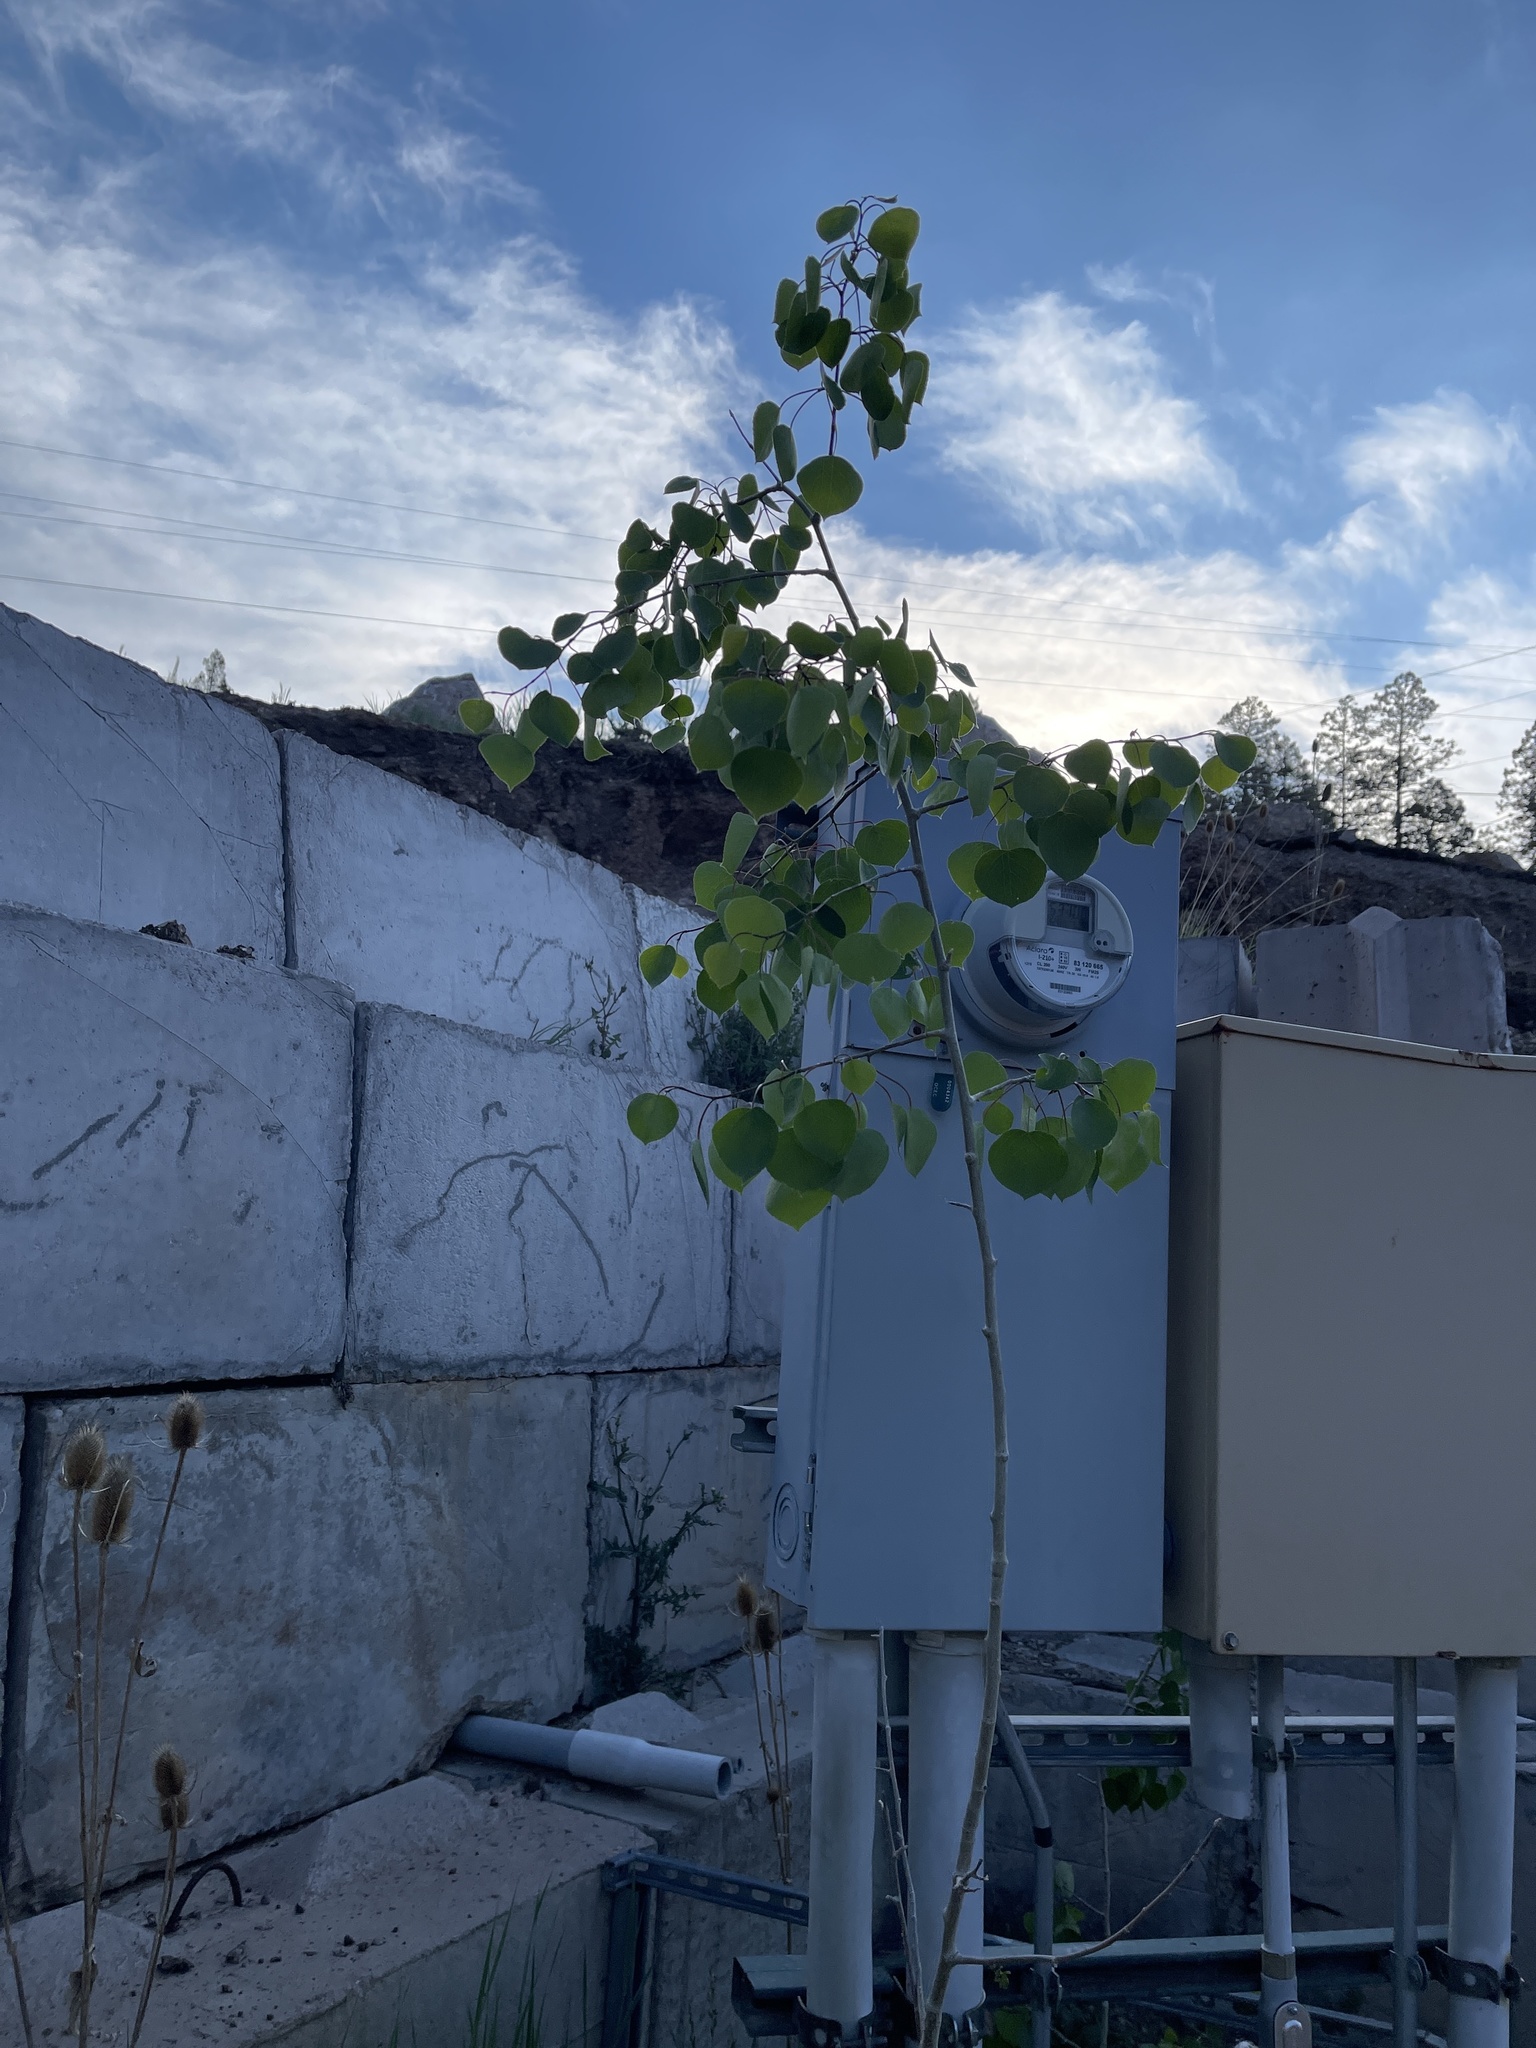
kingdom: Plantae
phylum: Tracheophyta
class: Magnoliopsida
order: Malpighiales
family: Salicaceae
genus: Populus
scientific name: Populus tremuloides
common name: Quaking aspen
